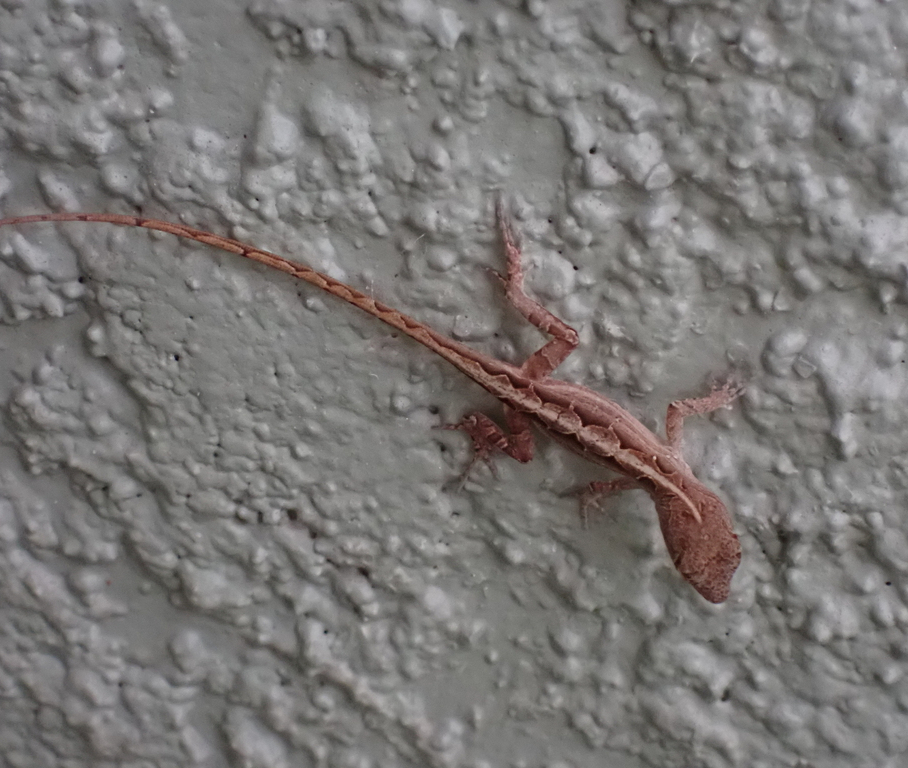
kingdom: Animalia
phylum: Chordata
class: Squamata
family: Dactyloidae
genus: Anolis
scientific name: Anolis sagrei
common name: Brown anole
